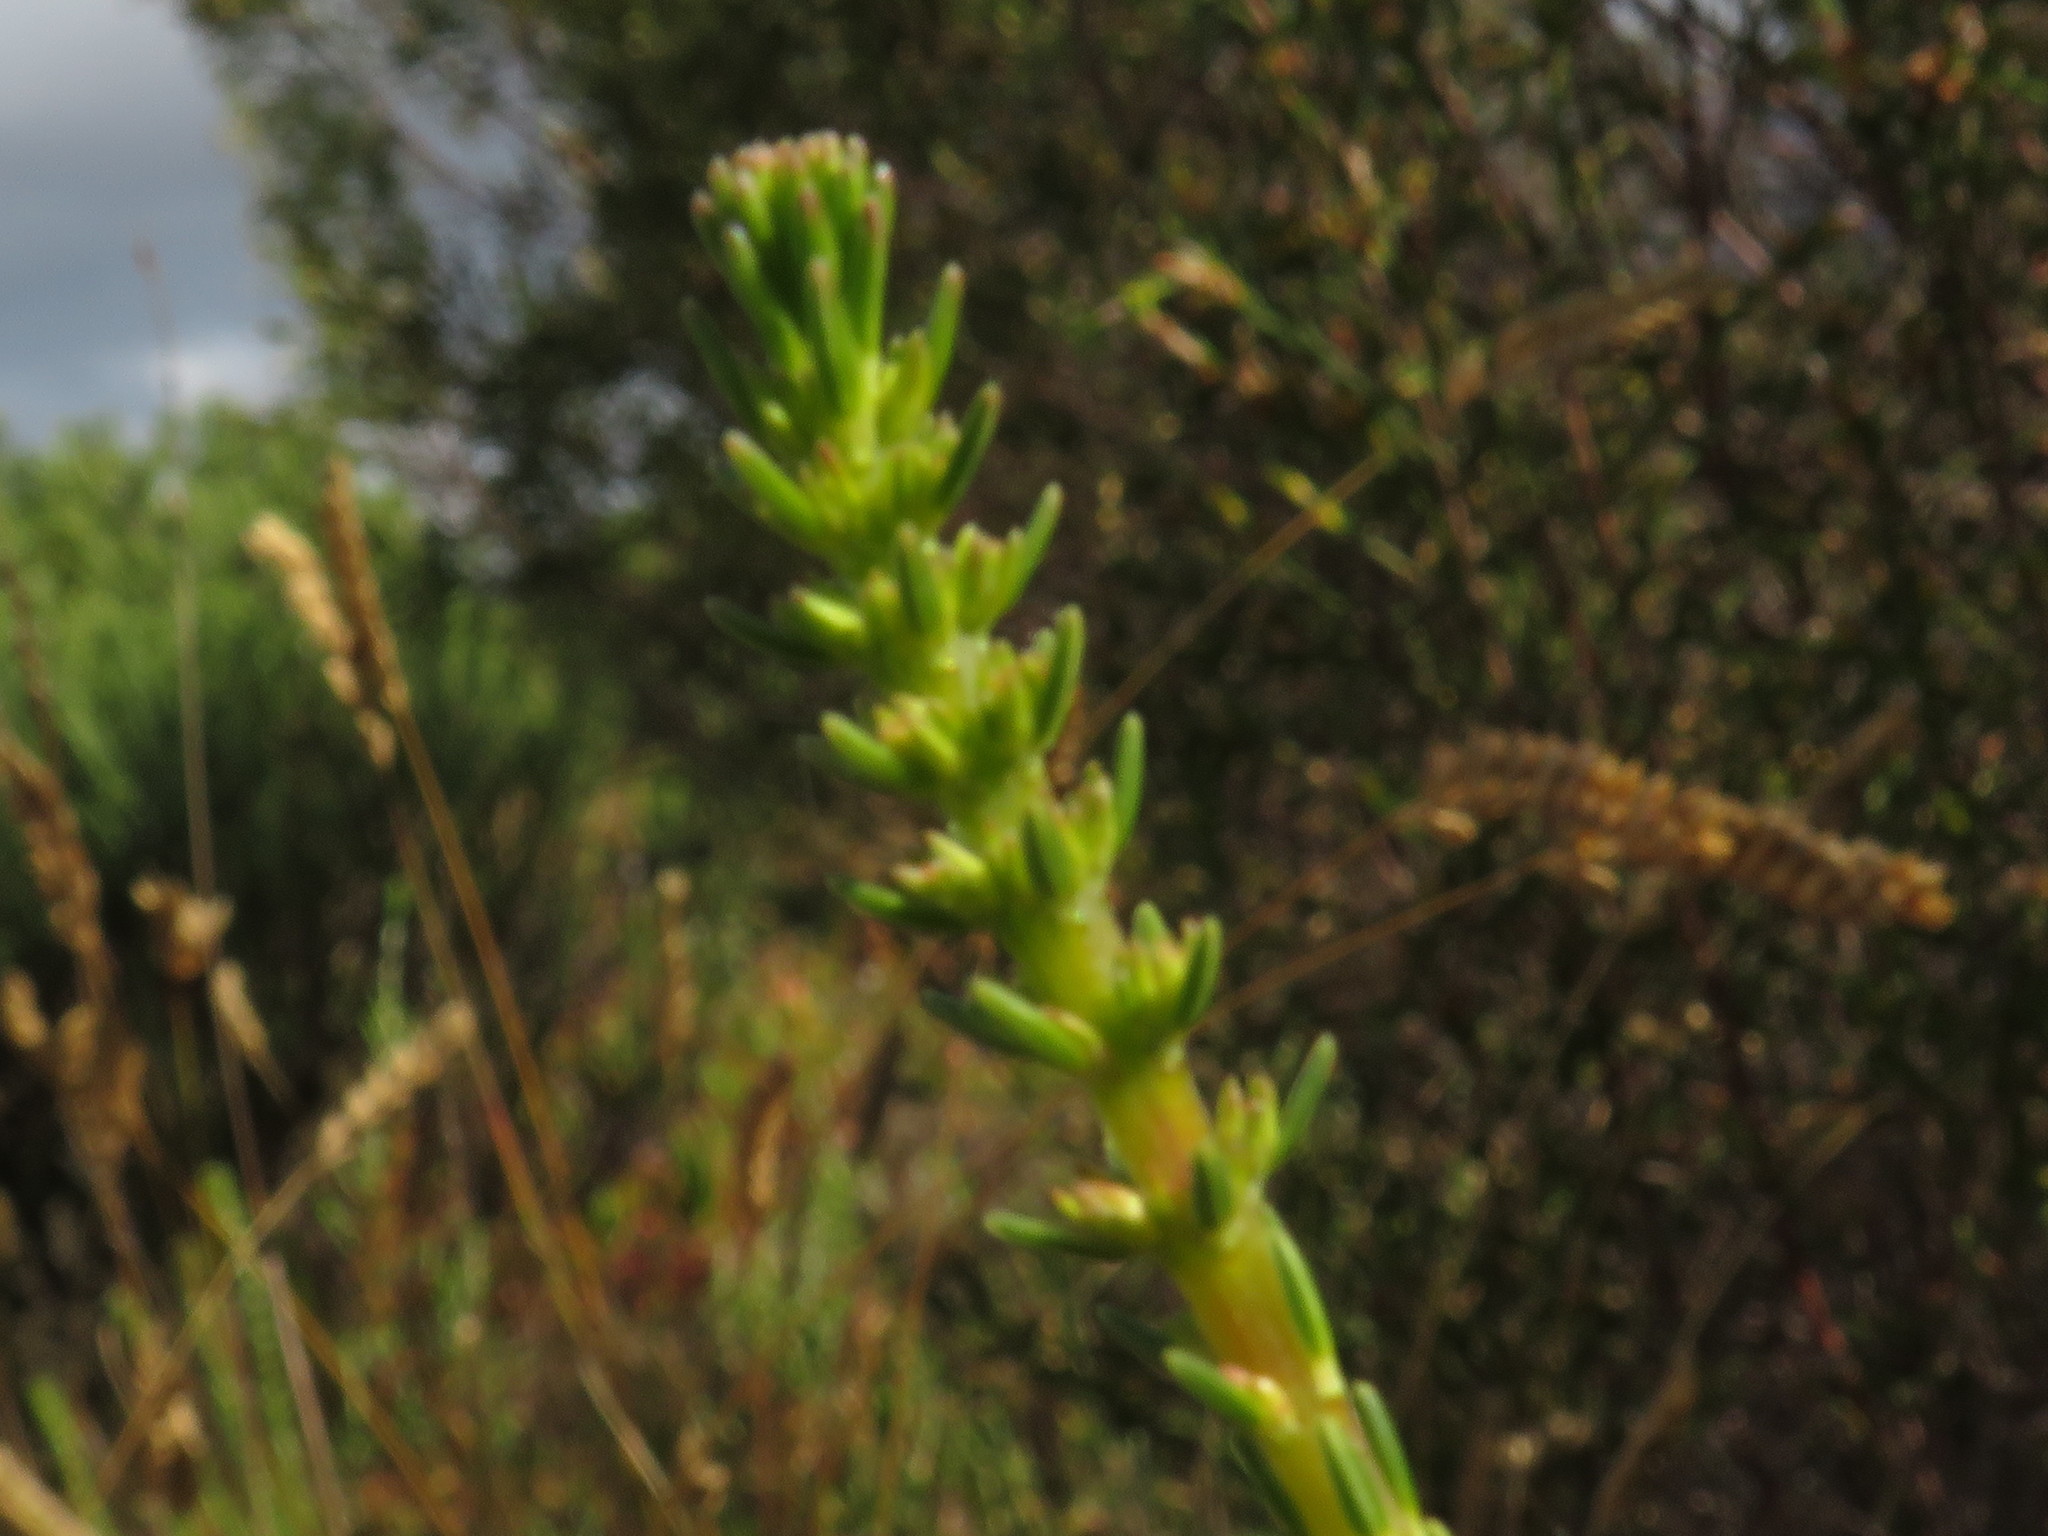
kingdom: Plantae
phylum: Tracheophyta
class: Magnoliopsida
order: Ericales
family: Ericaceae
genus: Erica
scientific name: Erica mammosa
